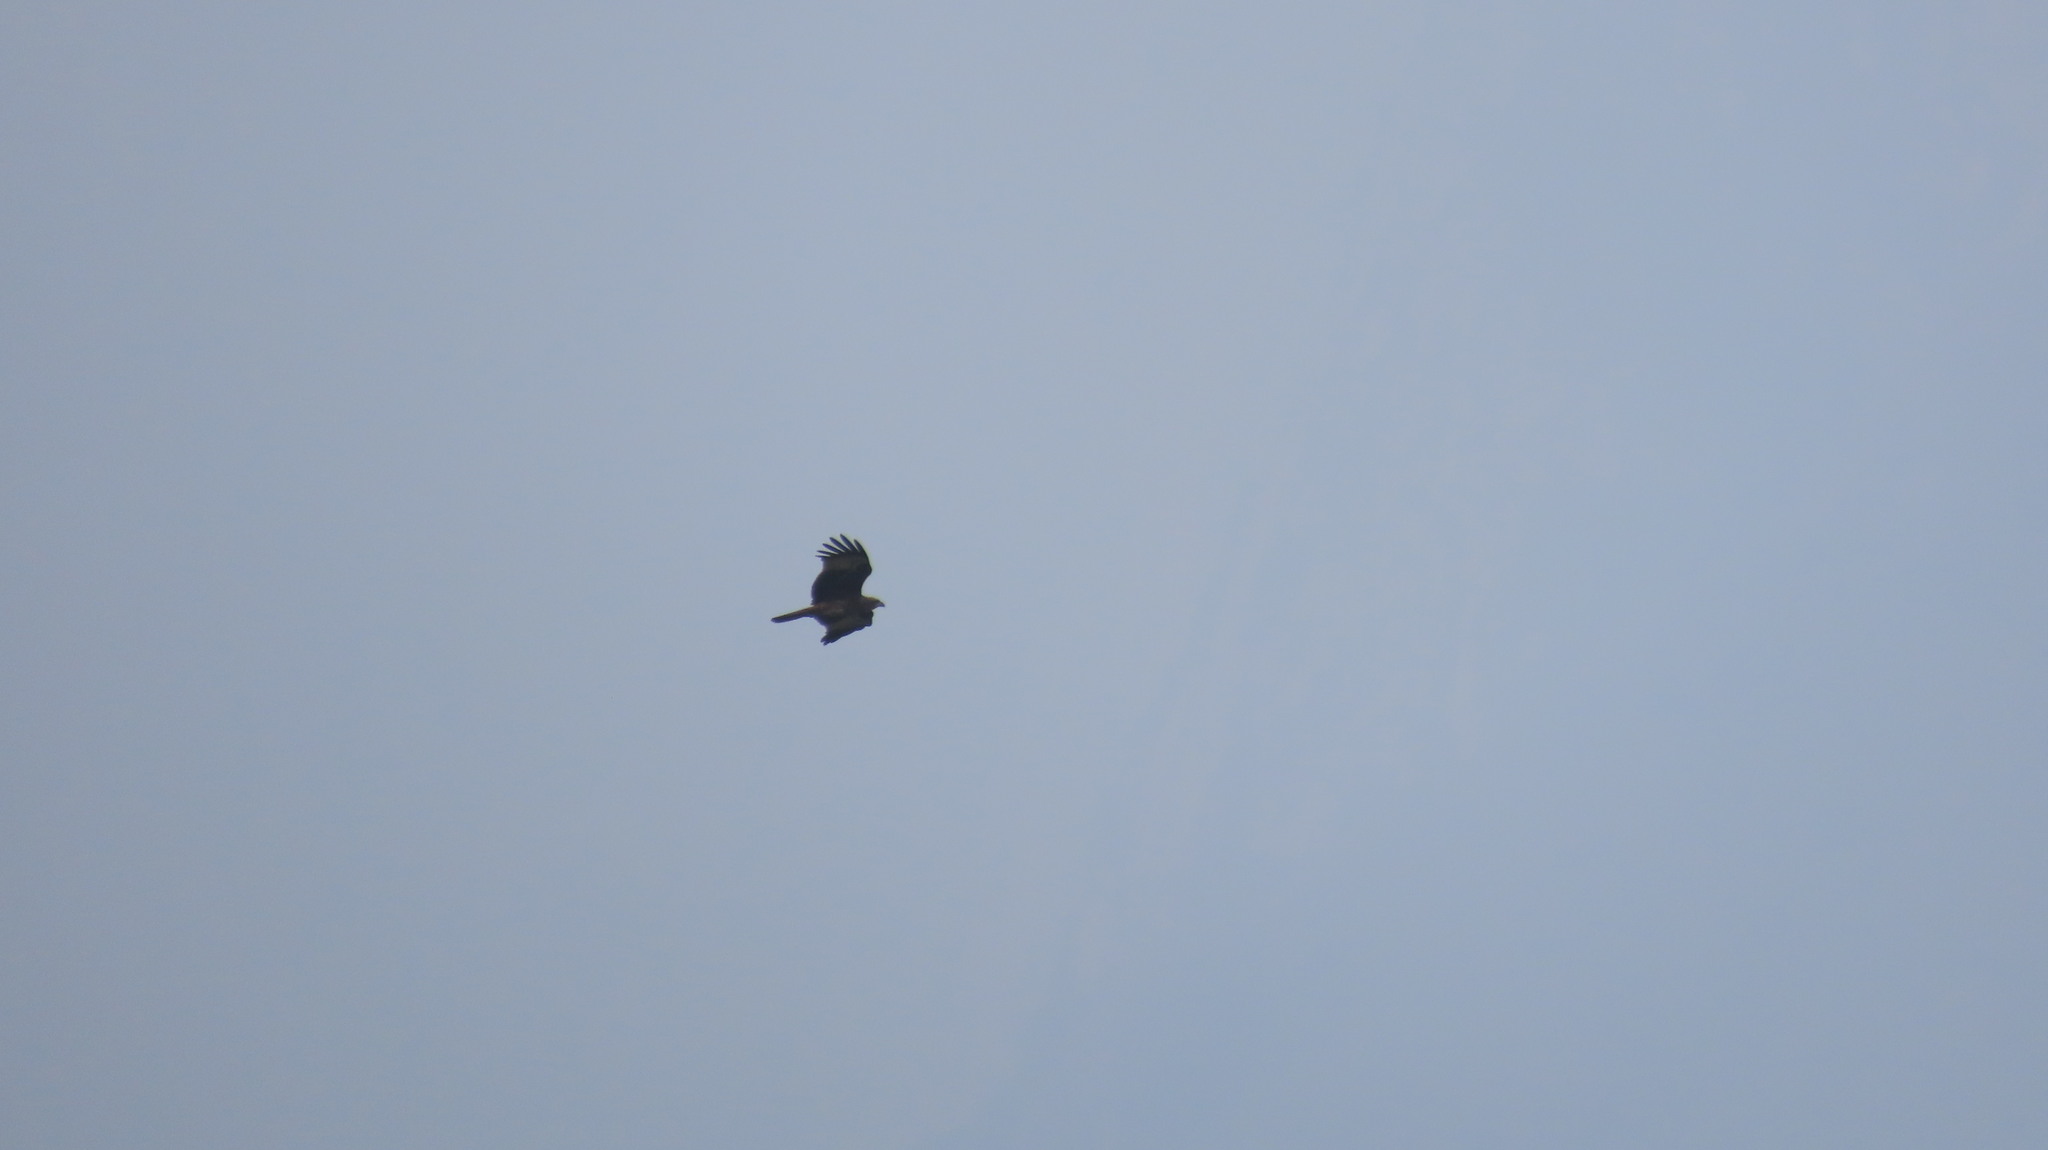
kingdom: Animalia
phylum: Chordata
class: Aves
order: Accipitriformes
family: Accipitridae
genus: Haliastur
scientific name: Haliastur indus
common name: Brahminy kite
